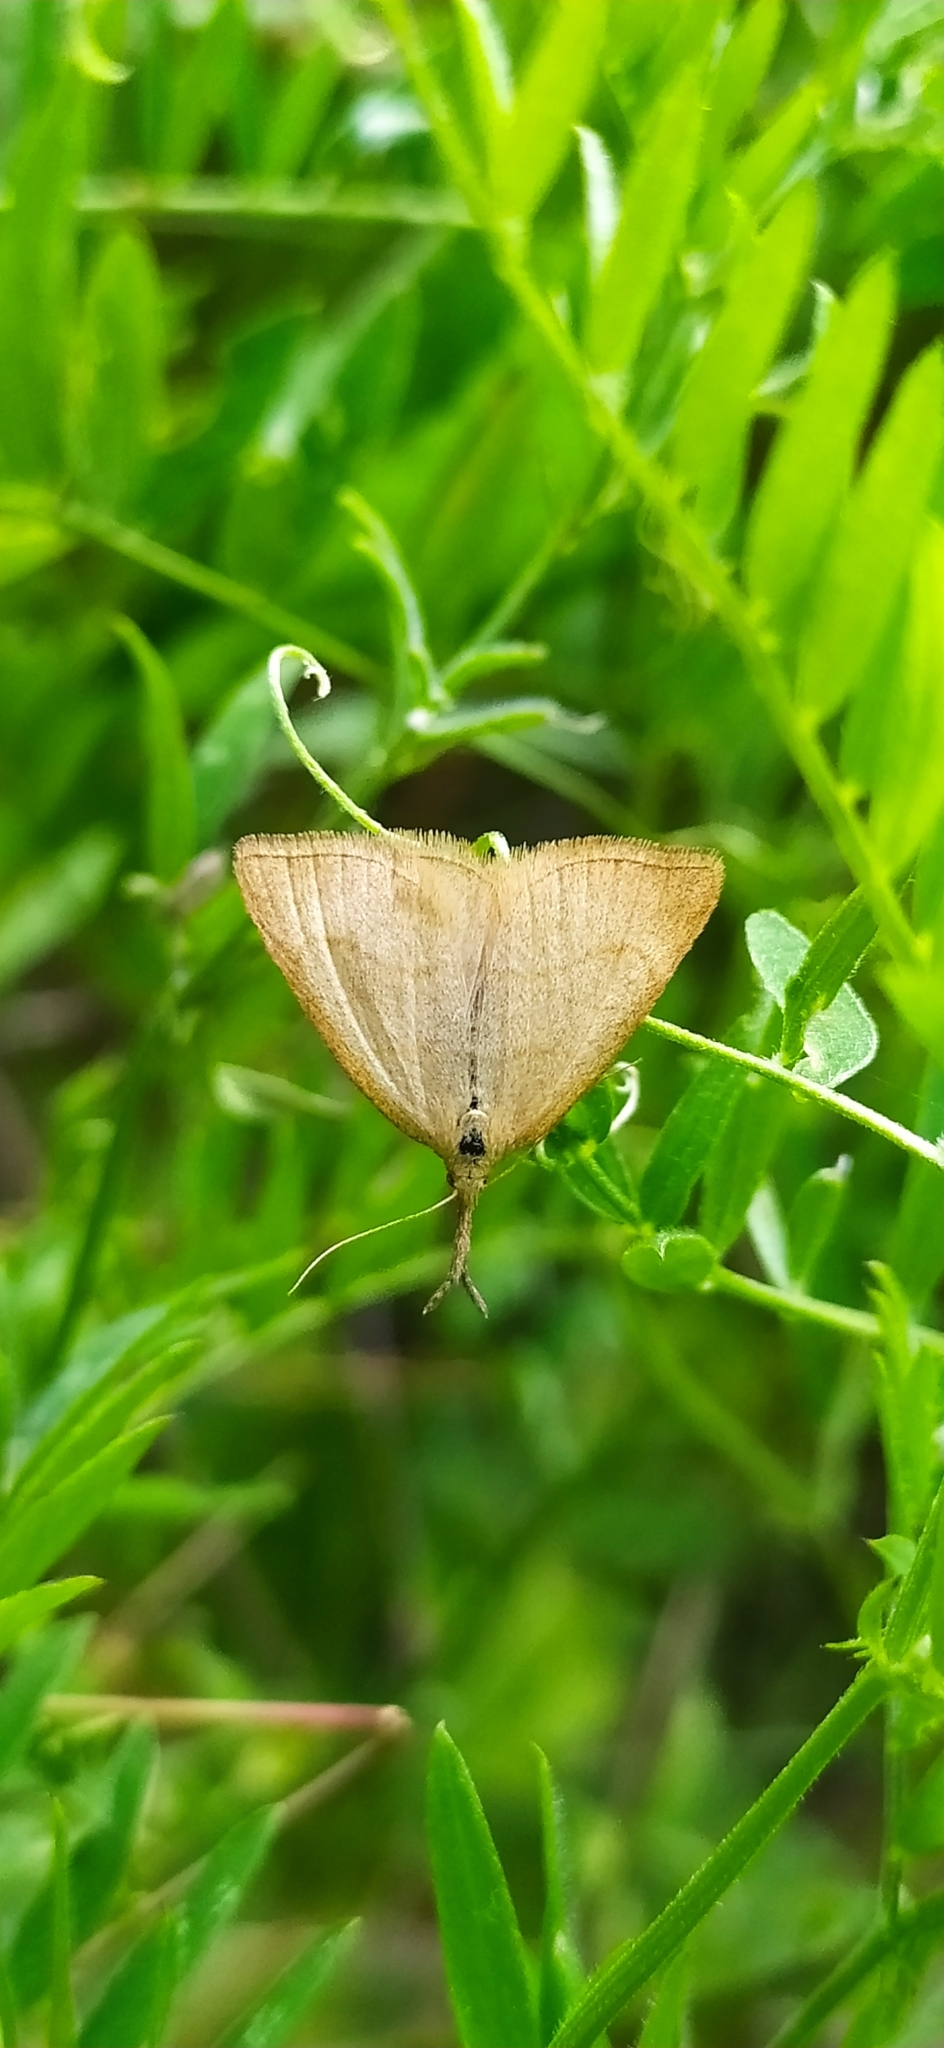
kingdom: Animalia
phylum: Arthropoda
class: Insecta
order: Lepidoptera
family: Erebidae
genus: Polypogon
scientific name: Polypogon tentacularia
